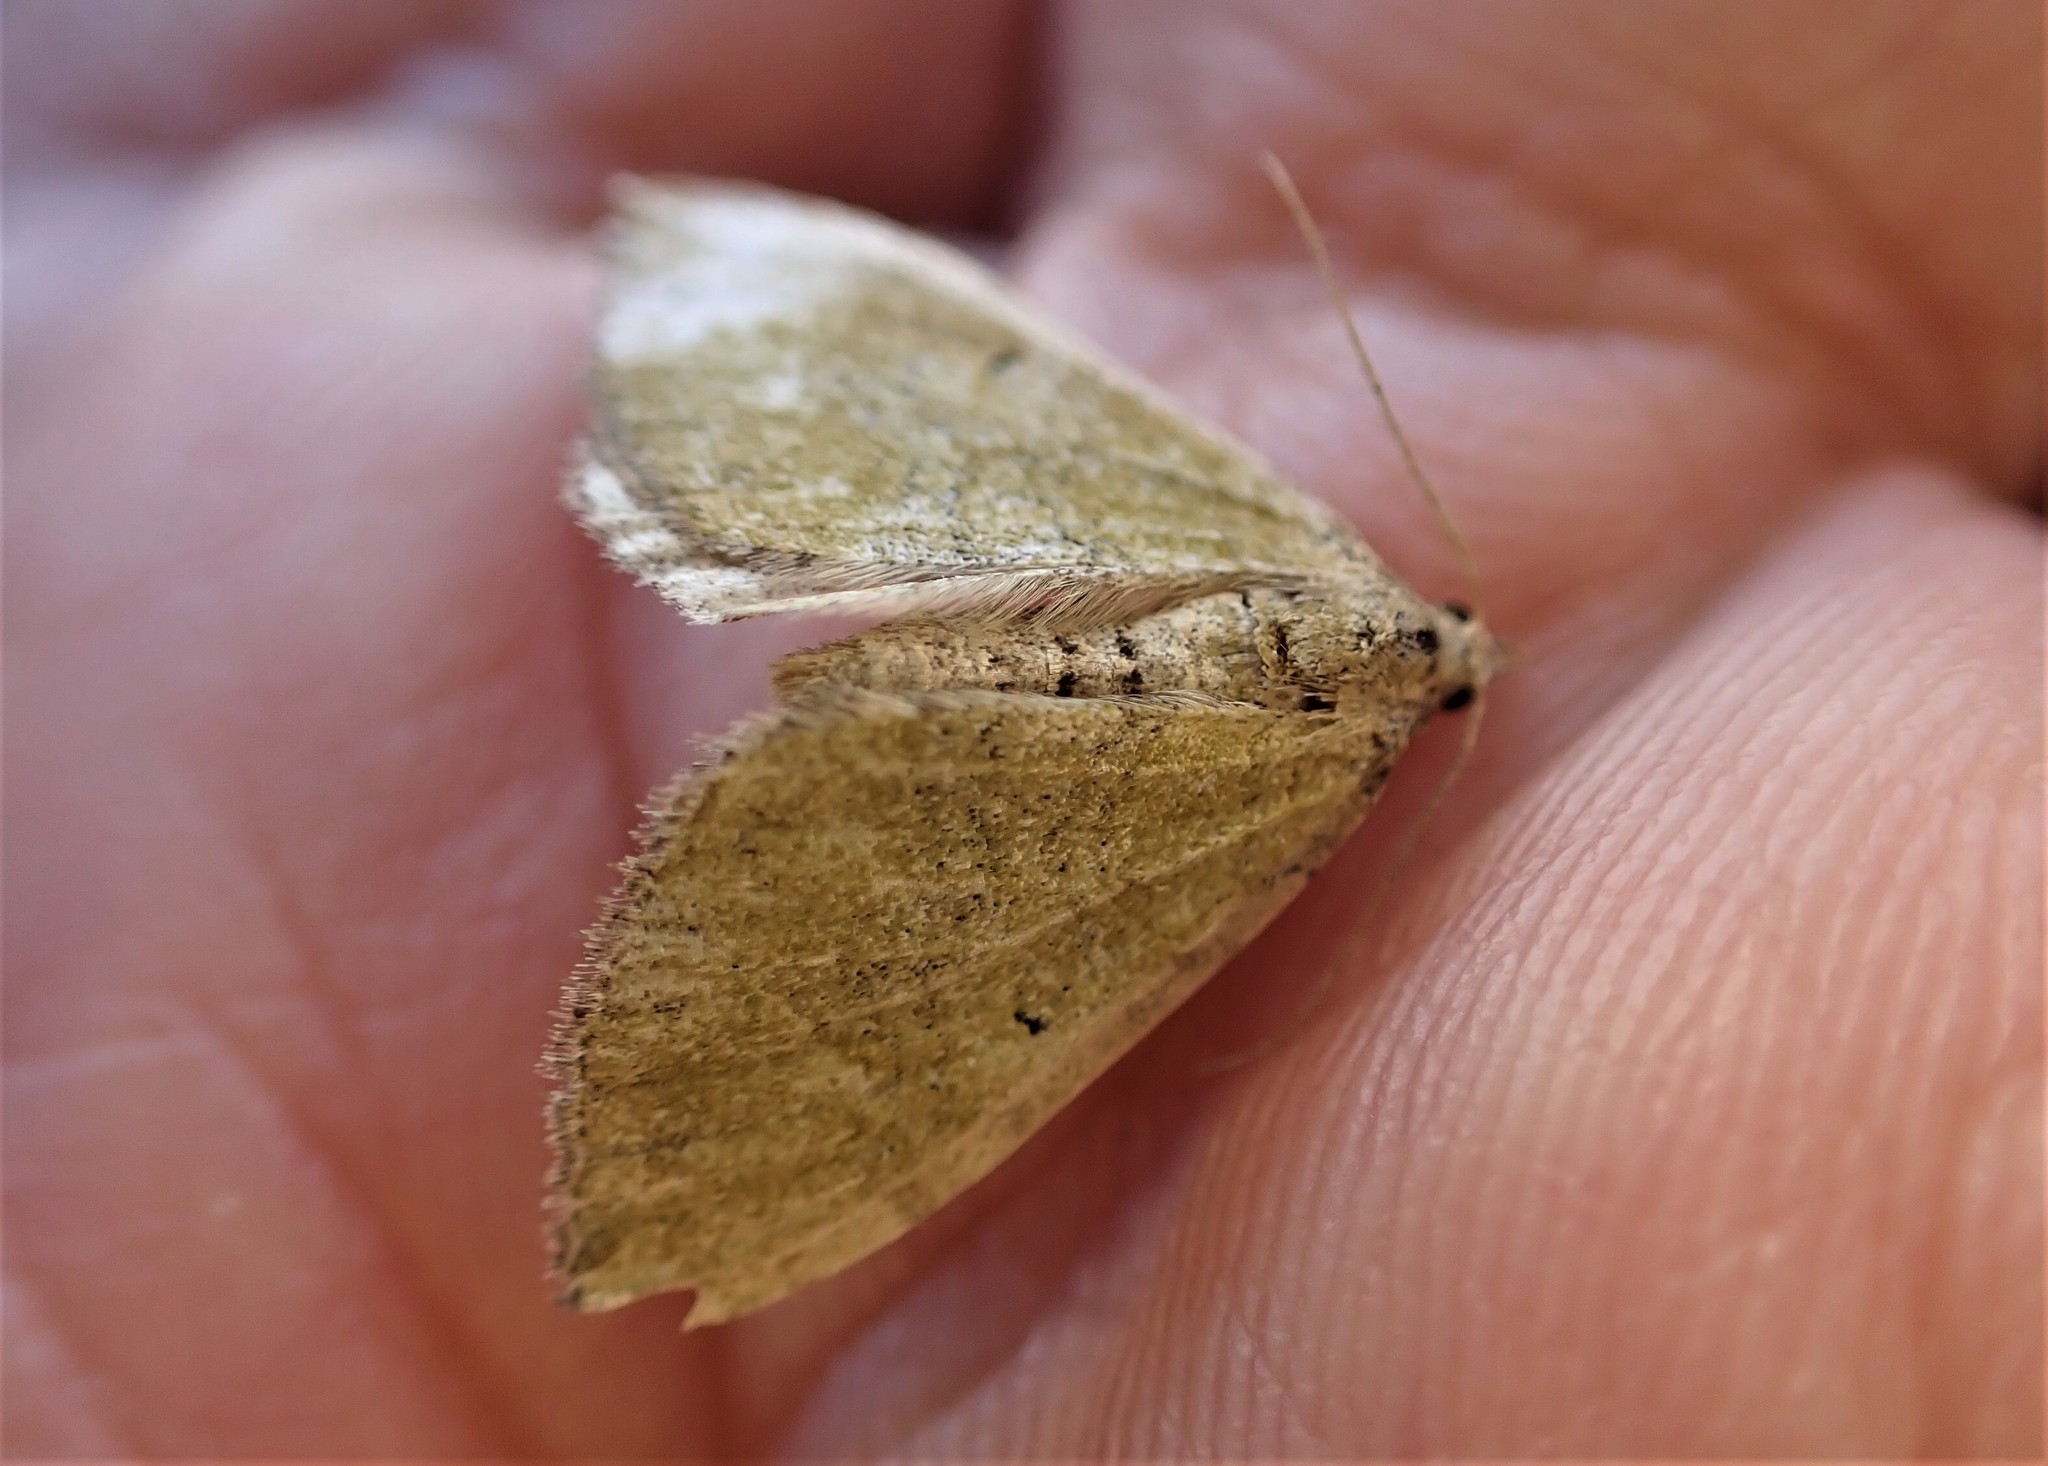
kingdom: Animalia
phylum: Arthropoda
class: Insecta
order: Lepidoptera
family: Geometridae
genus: Epyaxa
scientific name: Epyaxa rosearia
